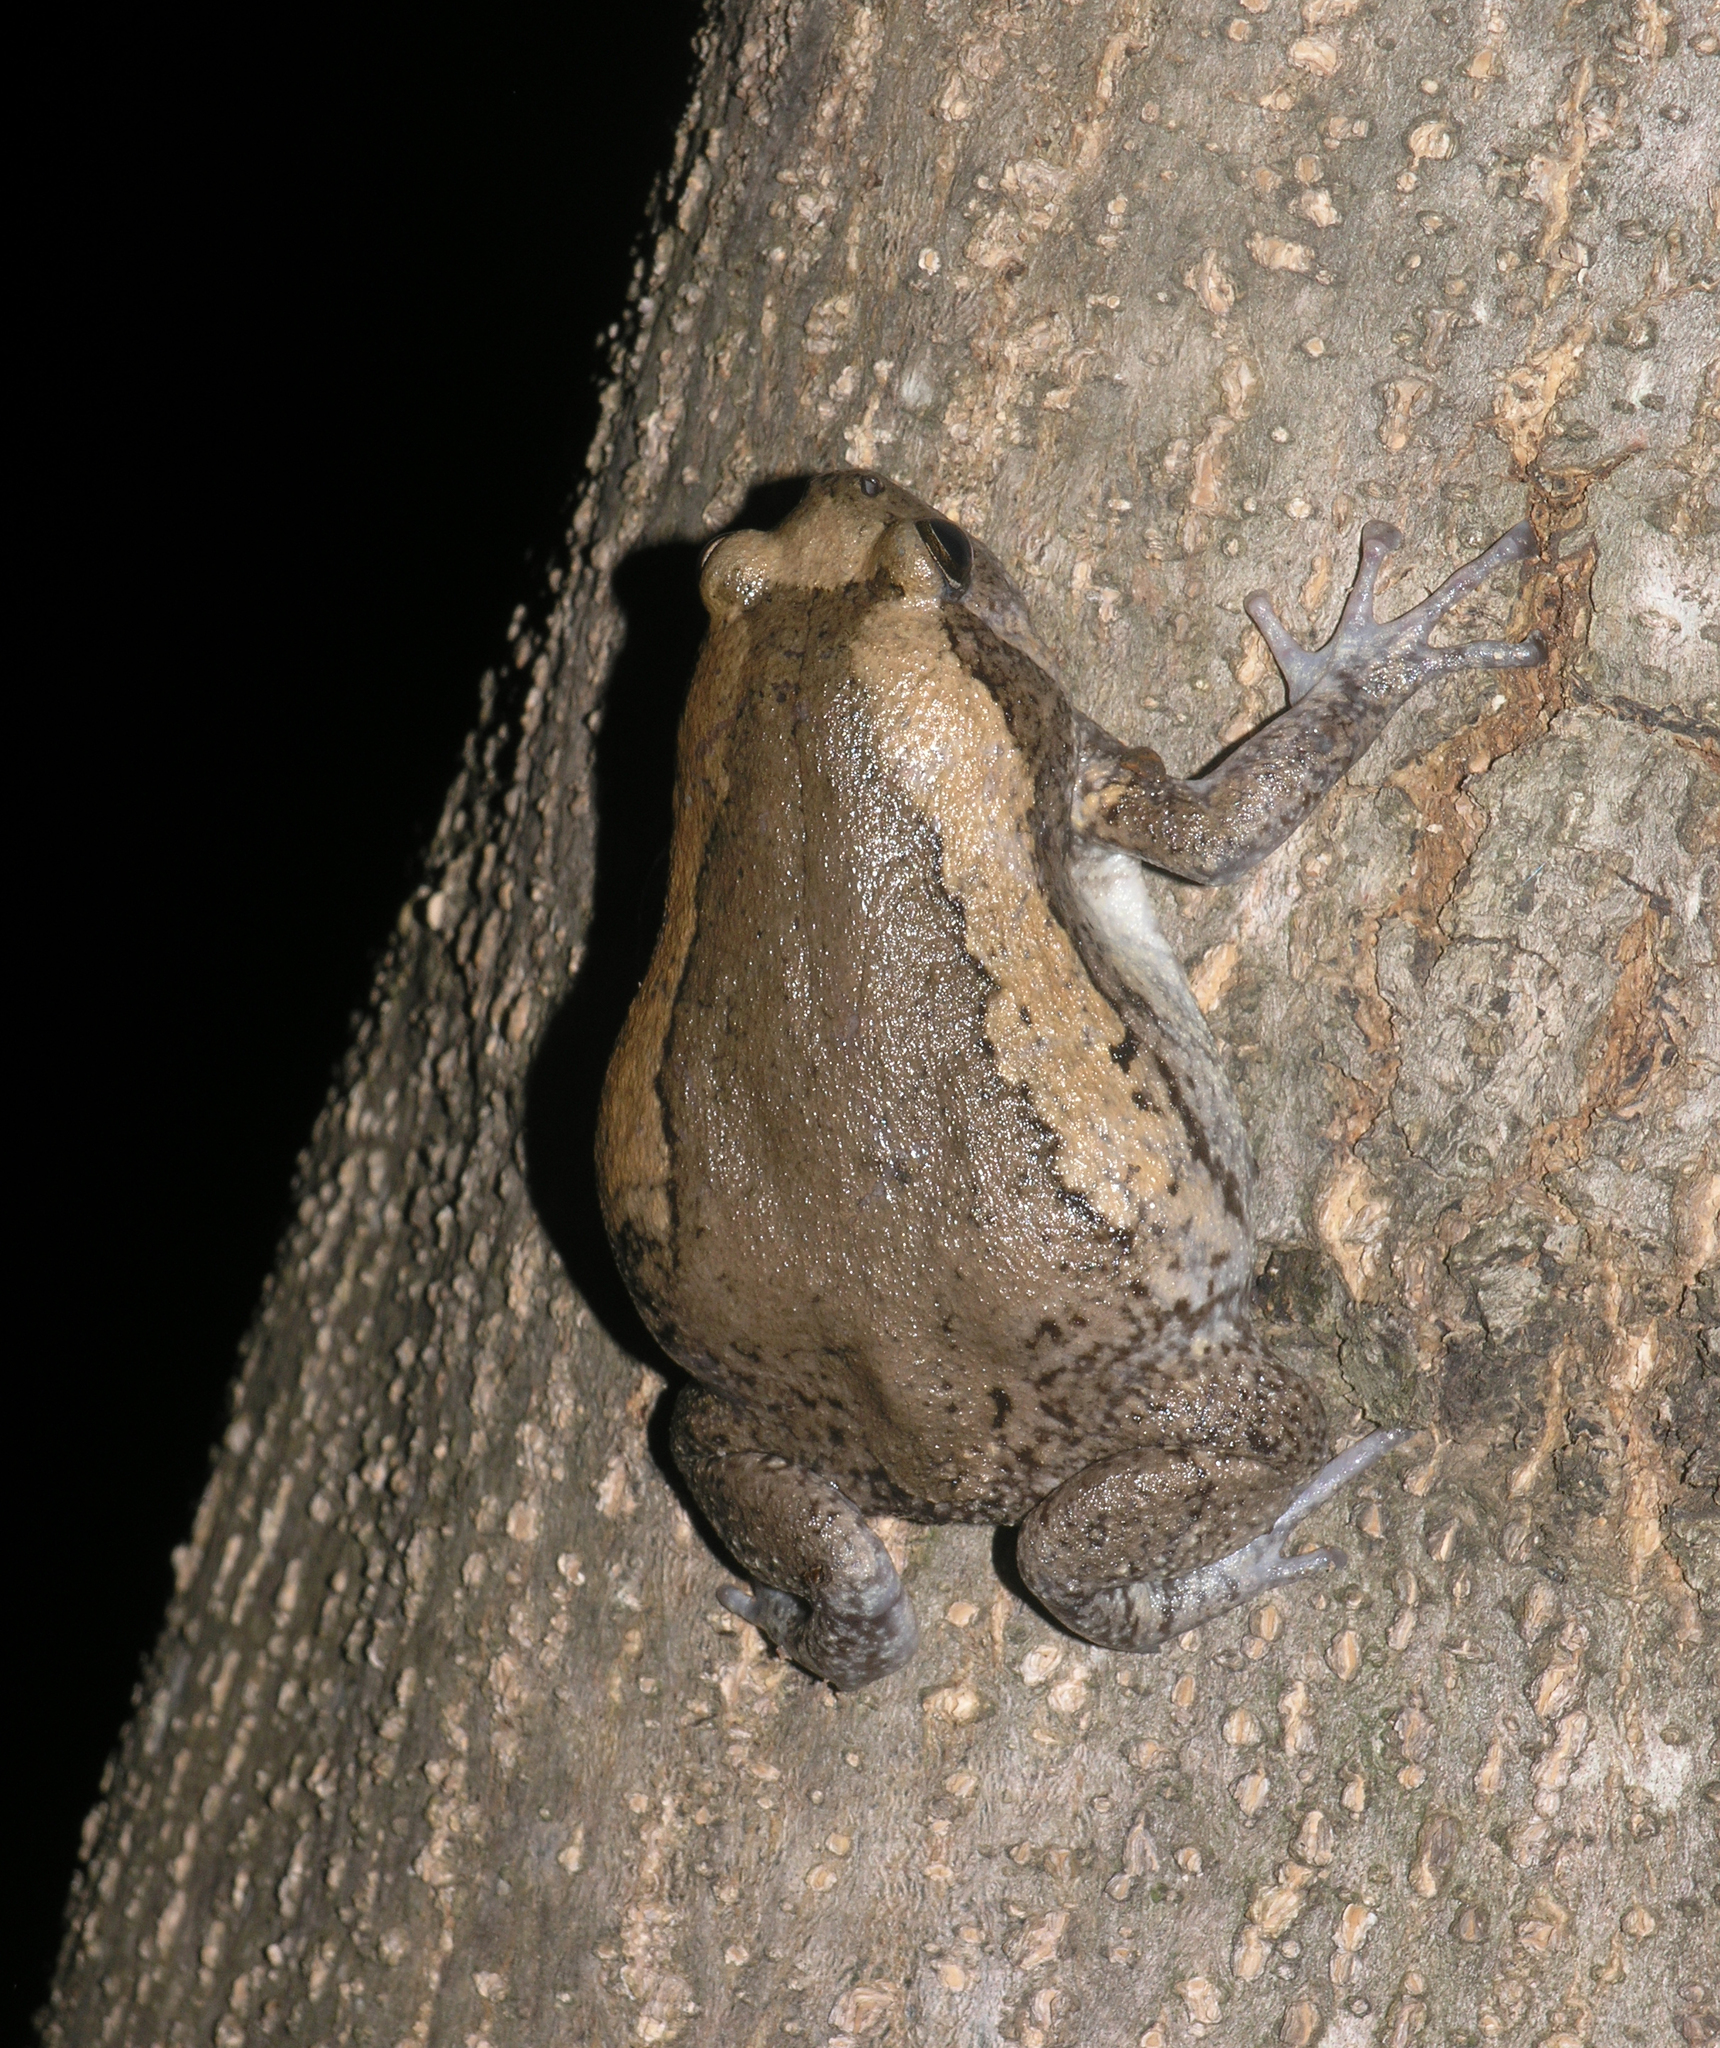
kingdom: Animalia
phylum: Chordata
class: Amphibia
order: Anura
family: Microhylidae
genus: Kaloula
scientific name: Kaloula pulchra
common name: Common,banded bullfrog
